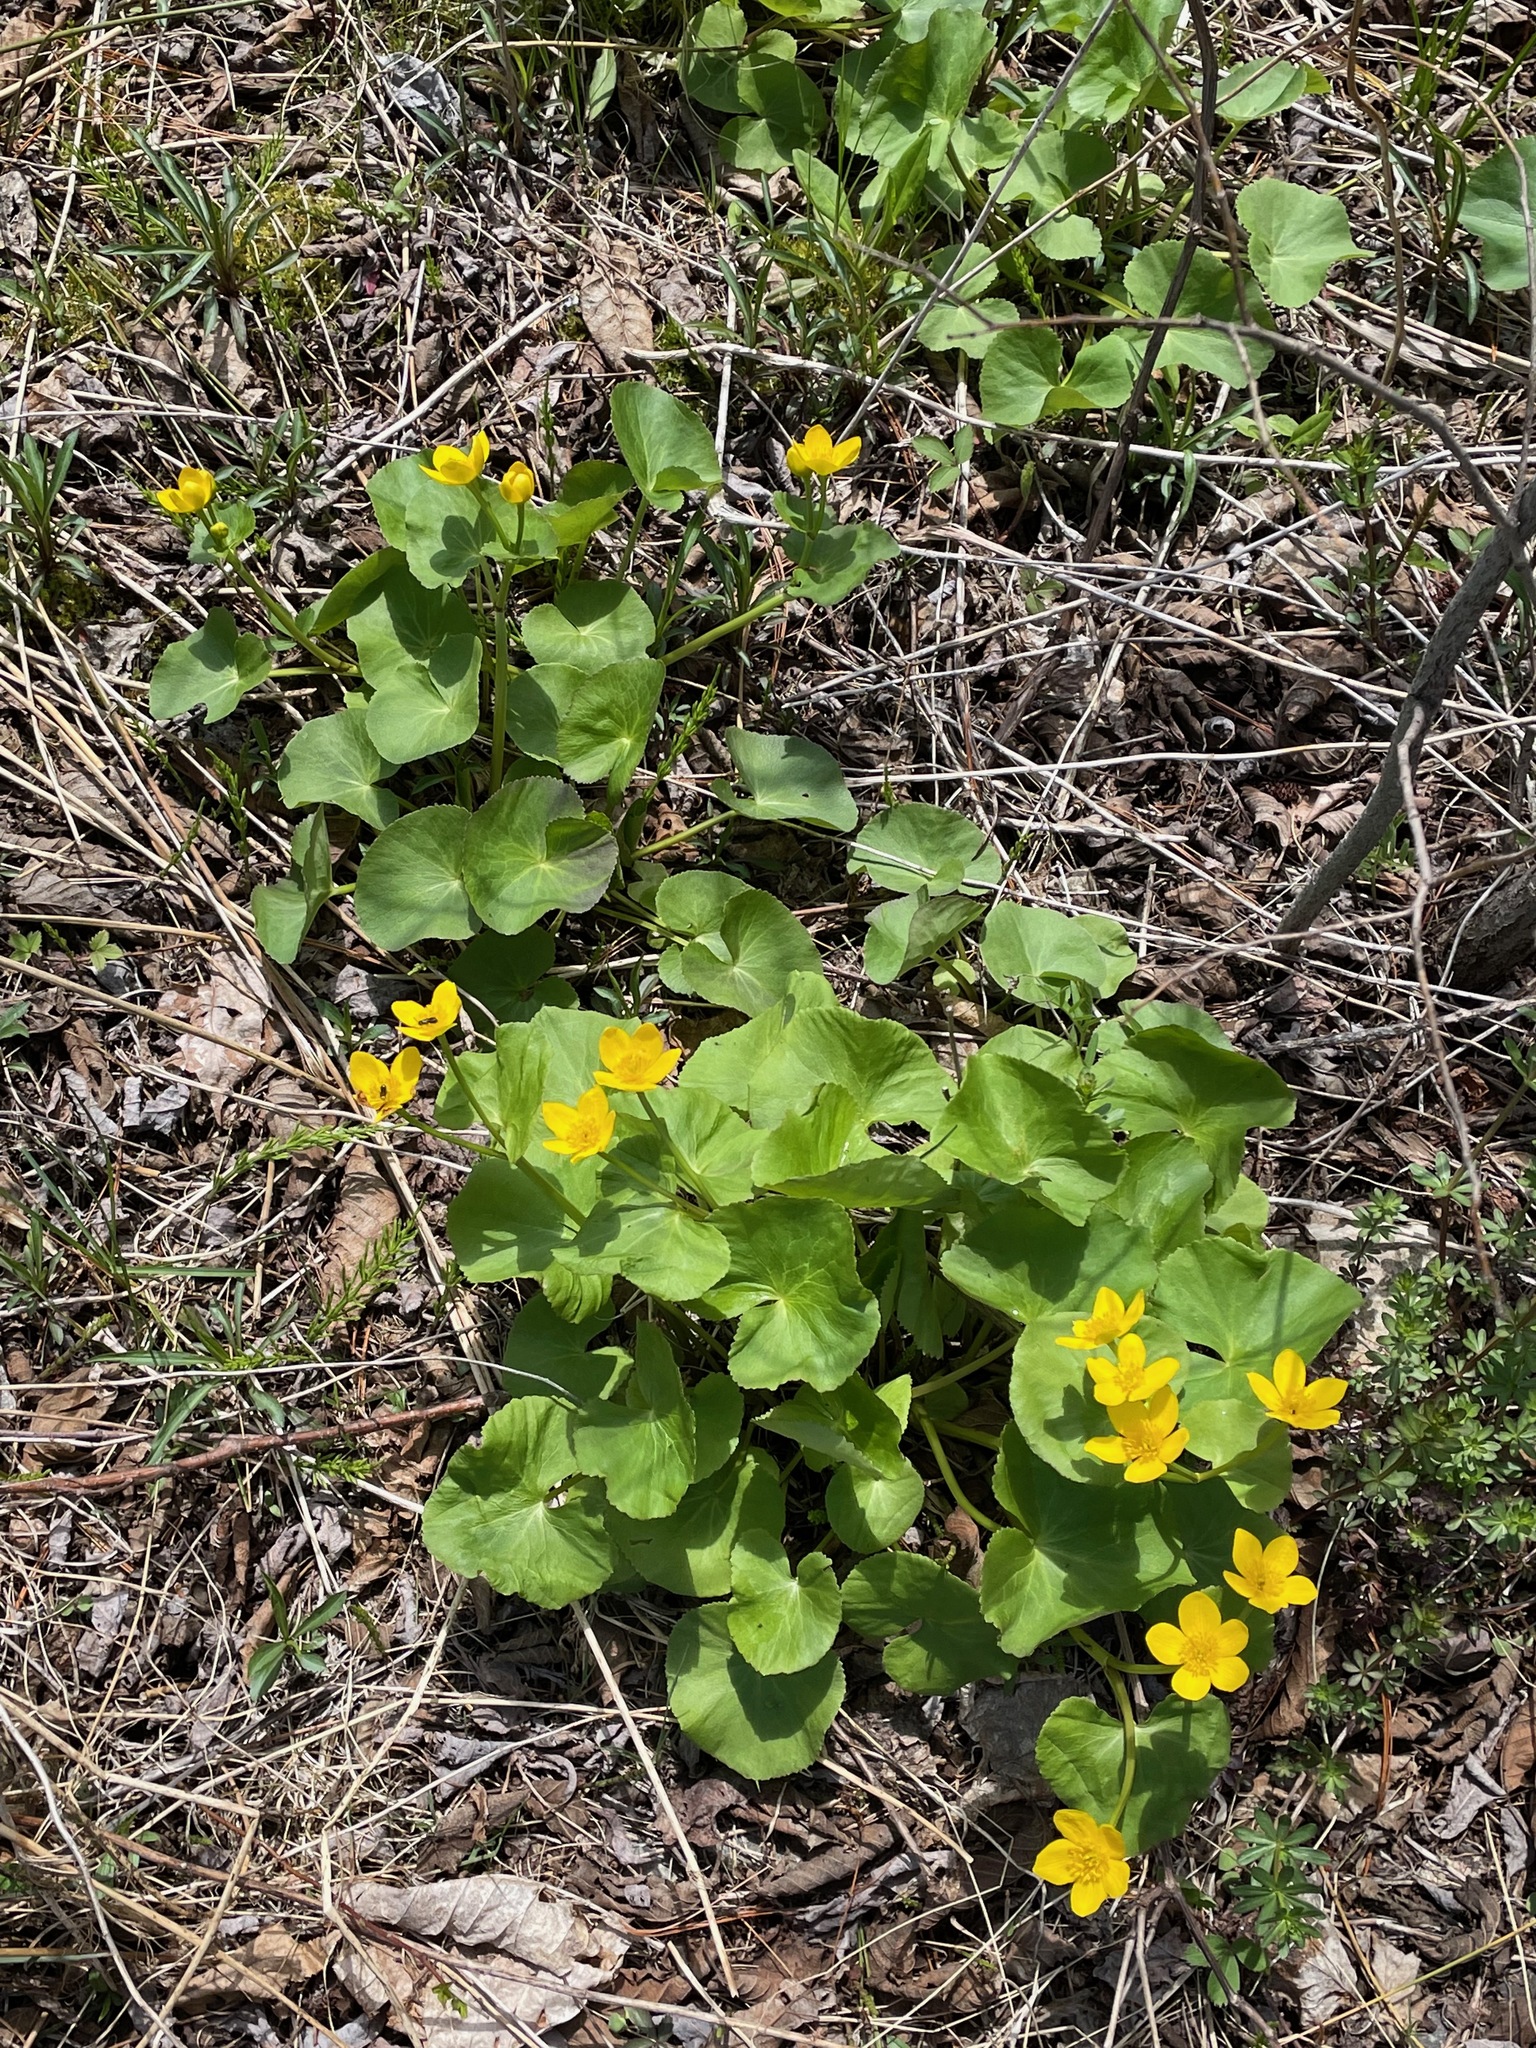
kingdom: Plantae
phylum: Tracheophyta
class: Magnoliopsida
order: Ranunculales
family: Ranunculaceae
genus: Caltha
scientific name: Caltha palustris
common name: Marsh marigold
